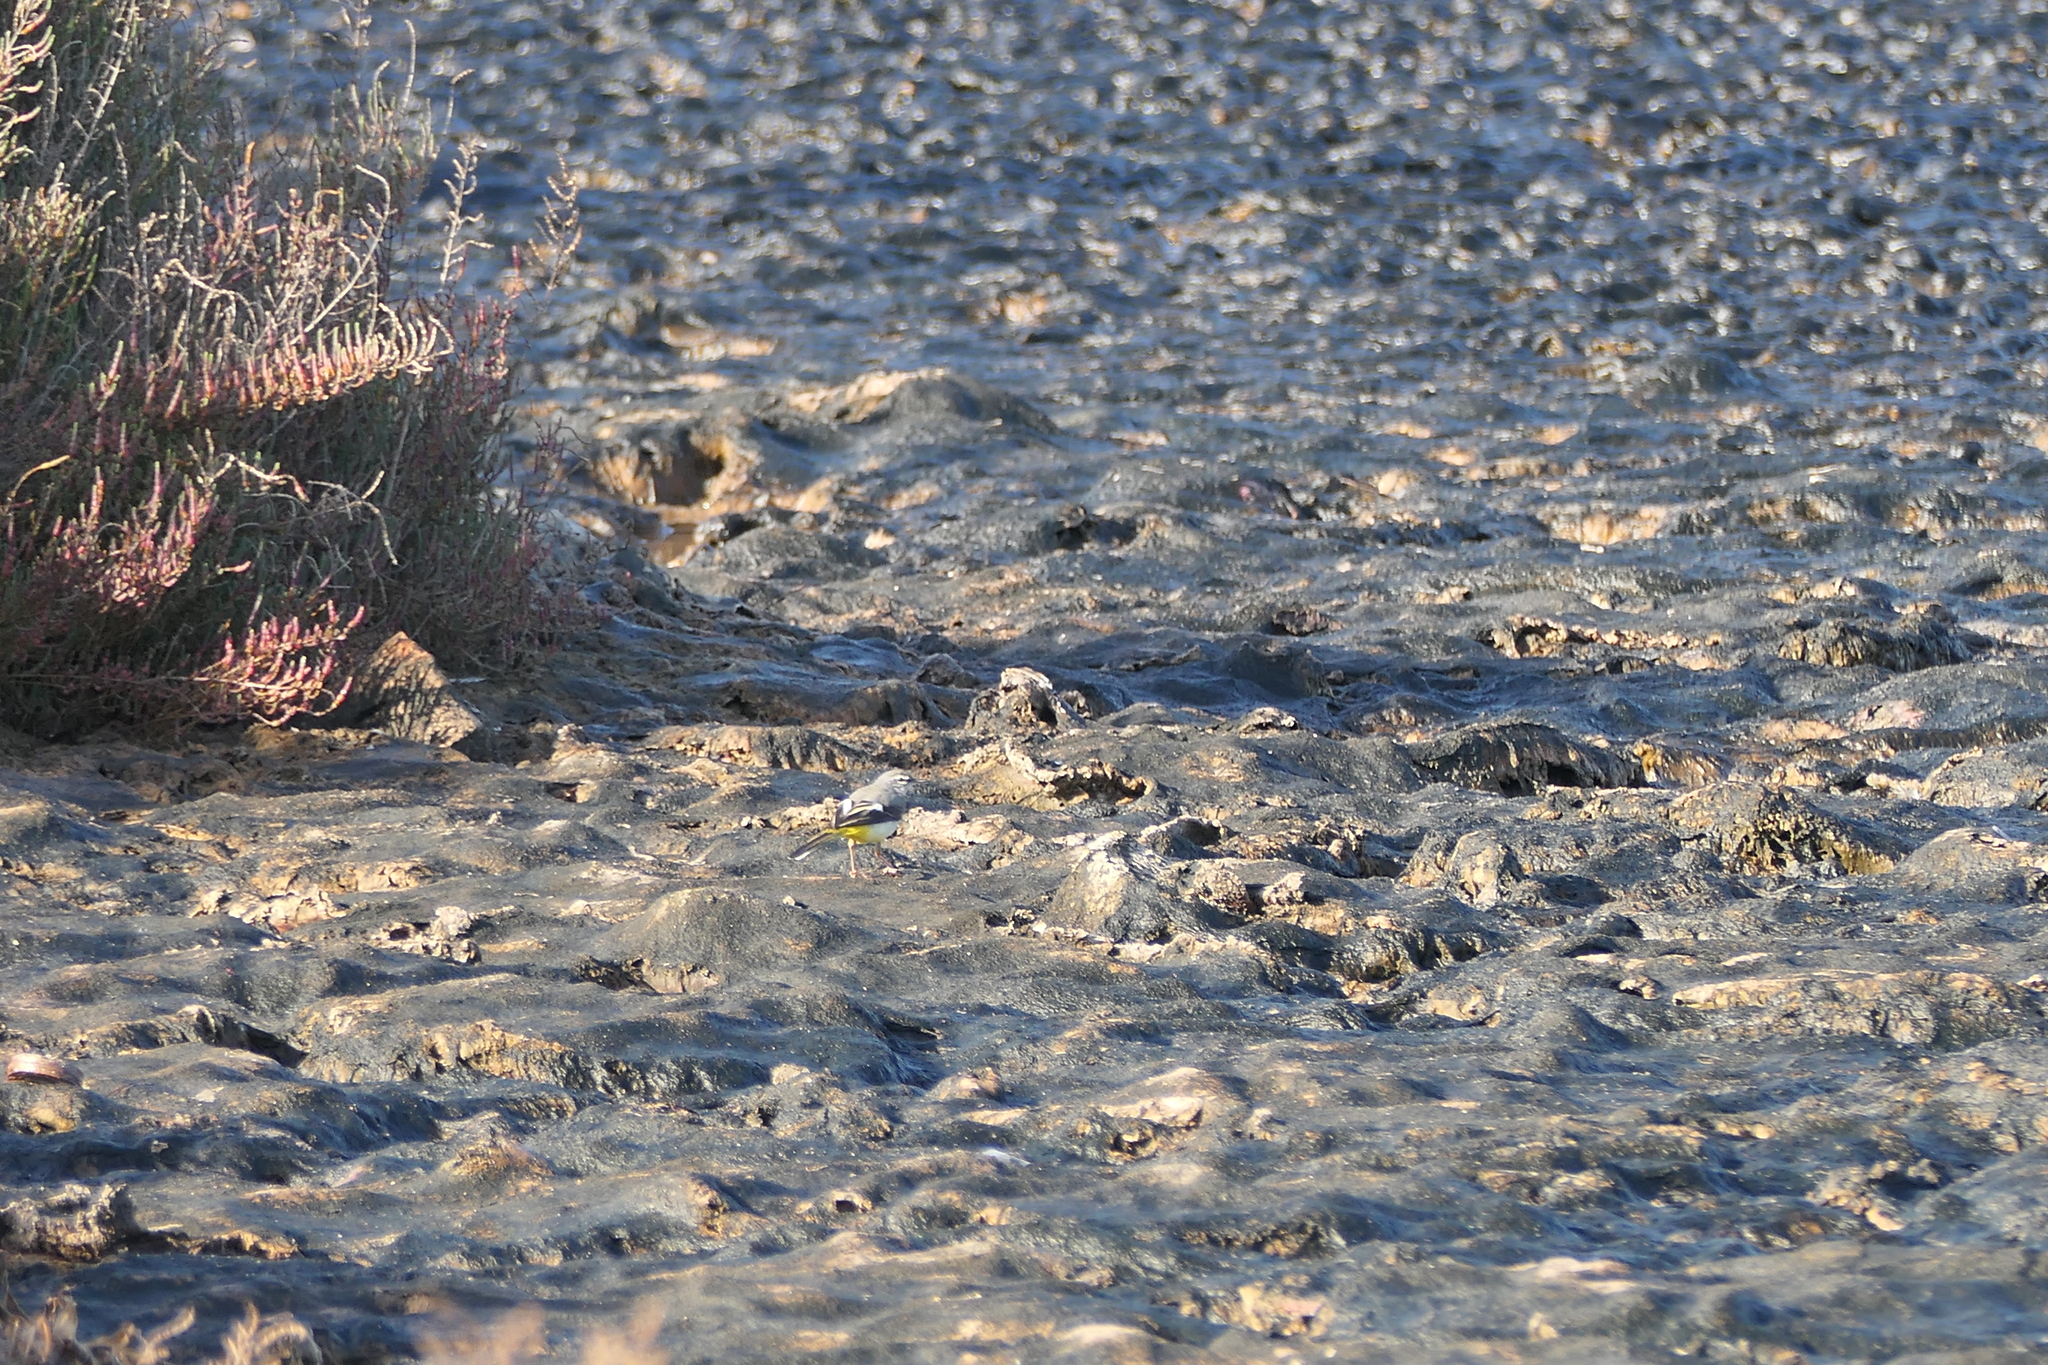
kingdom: Animalia
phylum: Chordata
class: Aves
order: Passeriformes
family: Motacillidae
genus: Motacilla
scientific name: Motacilla cinerea
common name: Grey wagtail
